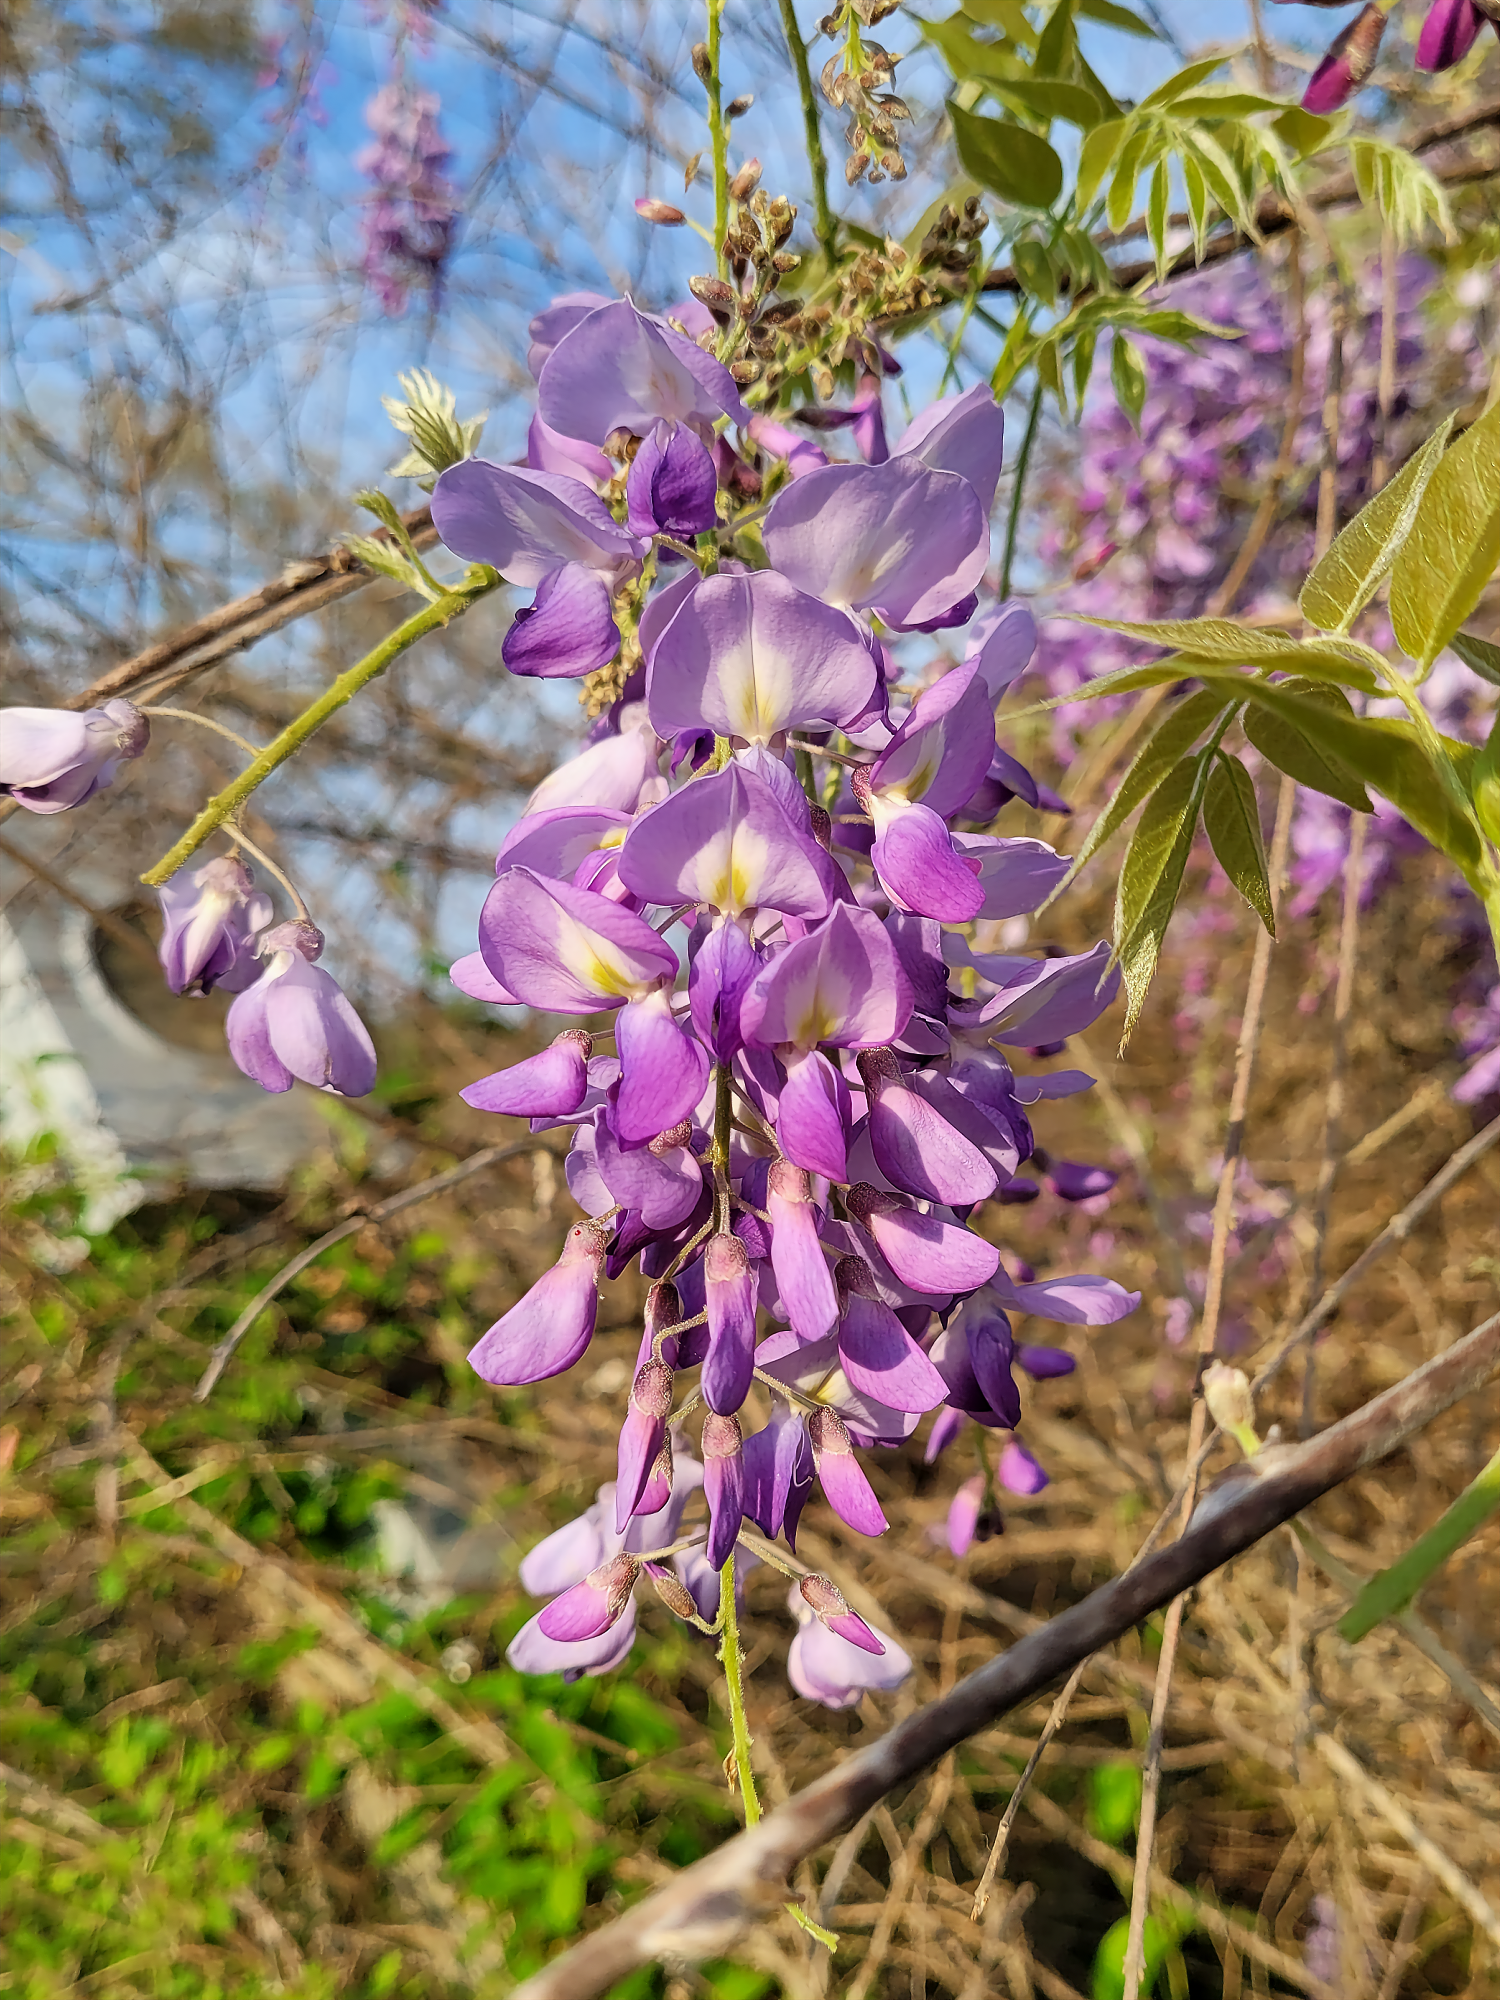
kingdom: Plantae
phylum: Tracheophyta
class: Magnoliopsida
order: Fabales
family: Fabaceae
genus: Wisteria
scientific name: Wisteria sinensis
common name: Chinese wisteria
